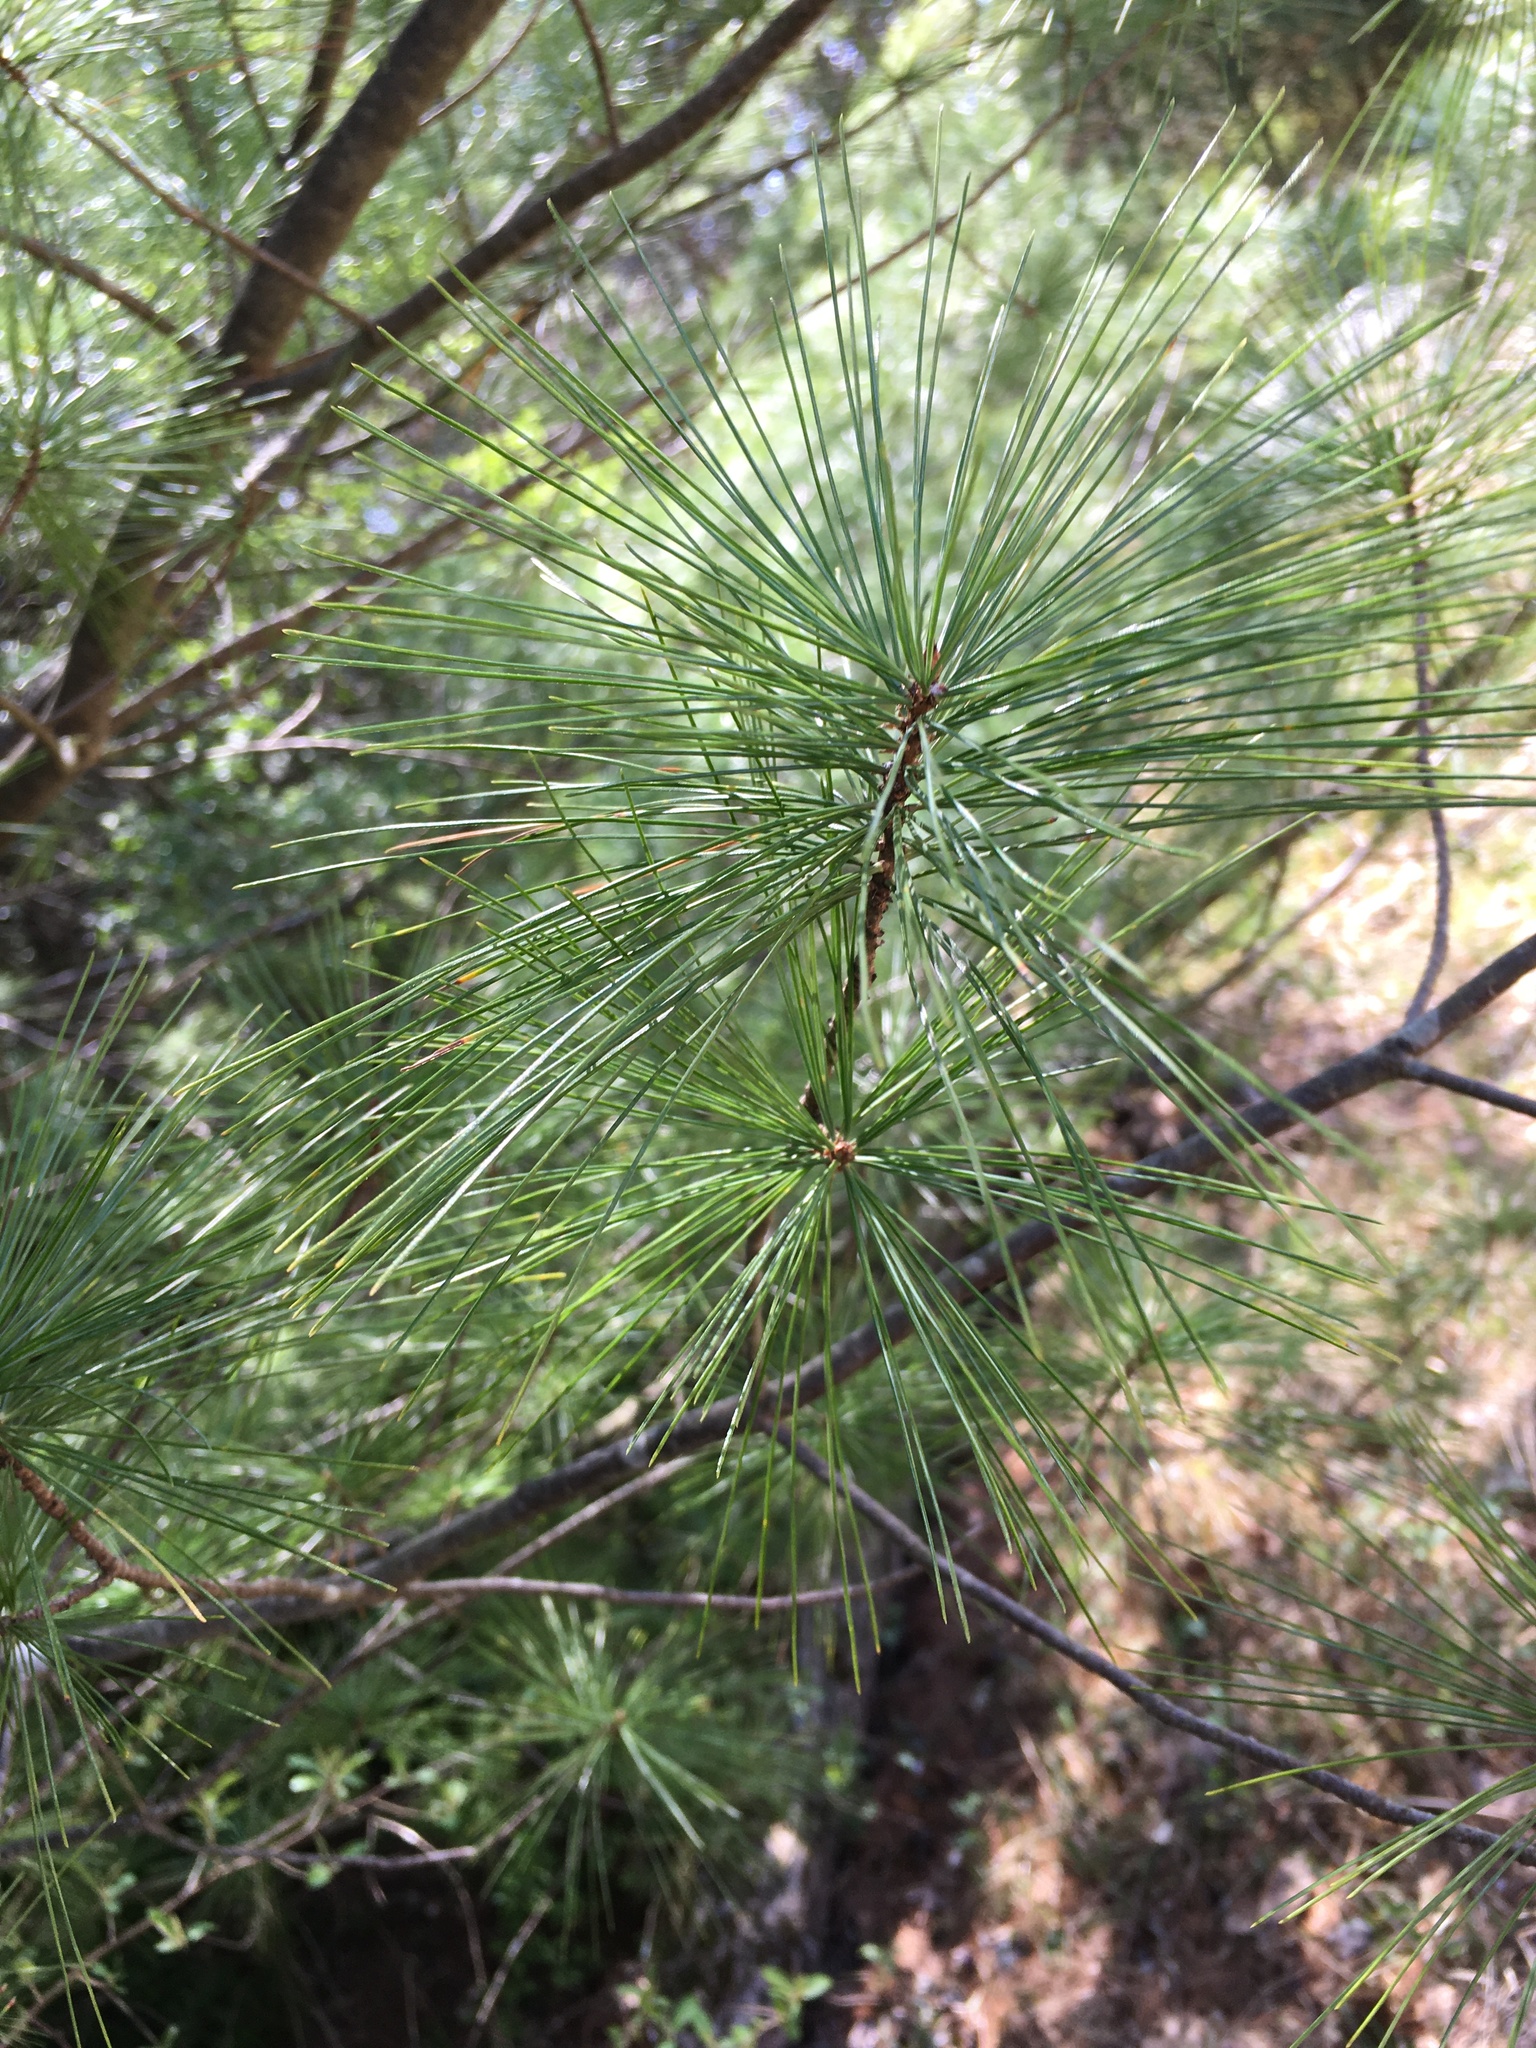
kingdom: Plantae
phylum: Tracheophyta
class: Pinopsida
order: Pinales
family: Pinaceae
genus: Pinus
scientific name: Pinus strobus
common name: Weymouth pine
